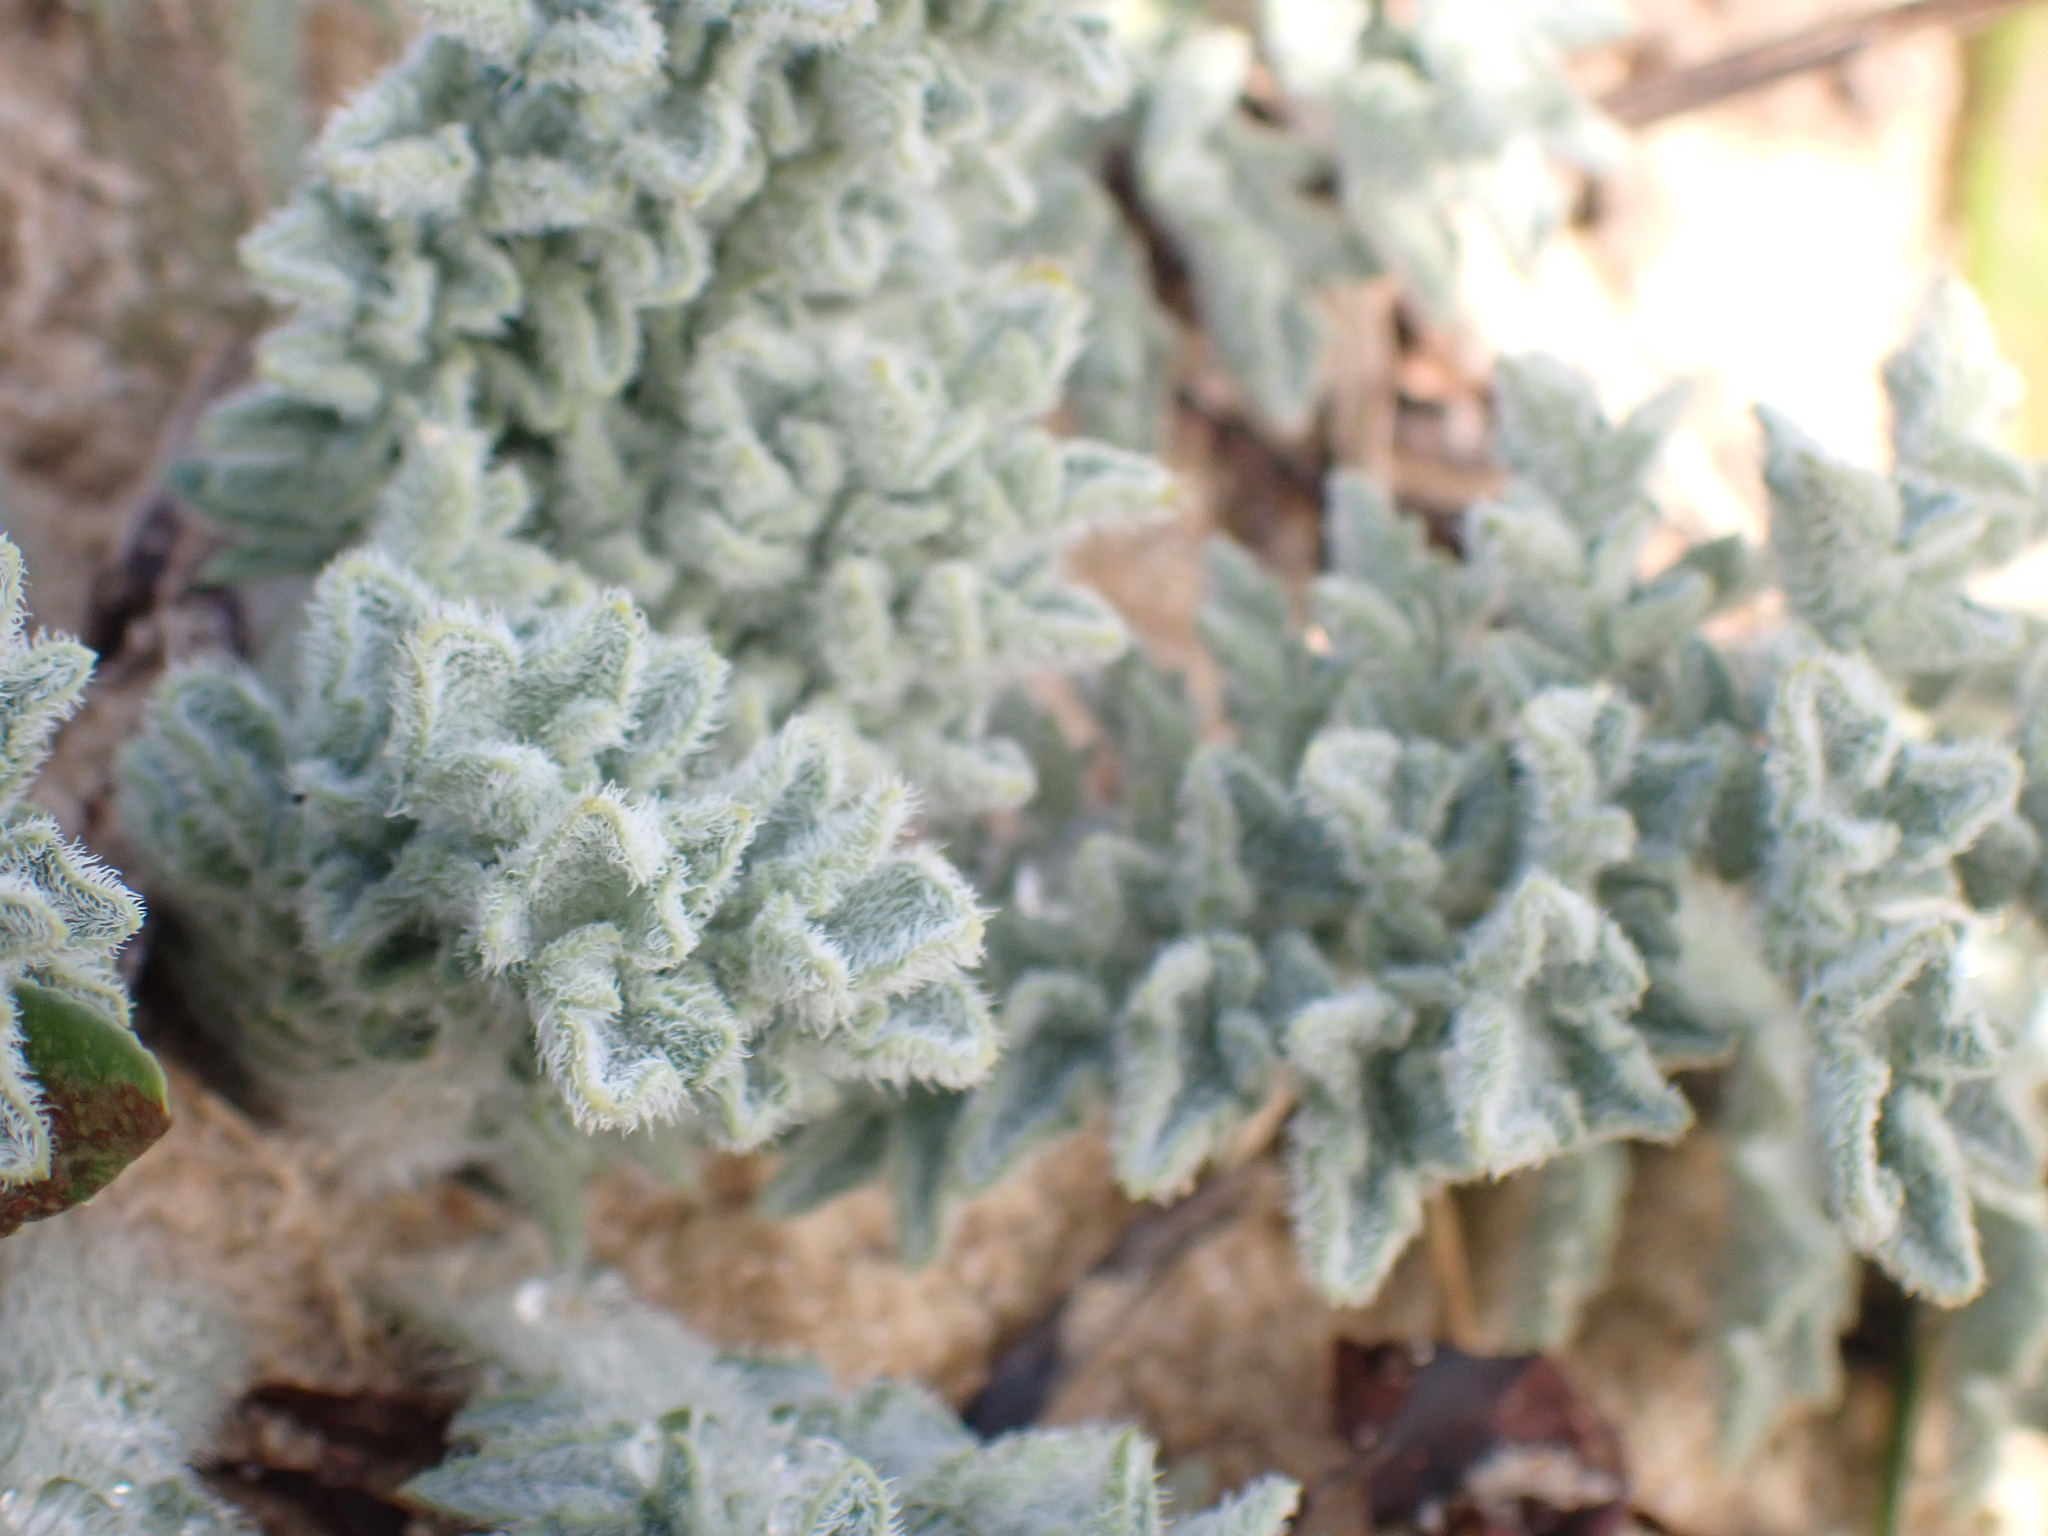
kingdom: Plantae
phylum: Tracheophyta
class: Magnoliopsida
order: Ranunculales
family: Papaveraceae
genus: Glaucium
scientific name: Glaucium flavum
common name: Yellow horned-poppy
